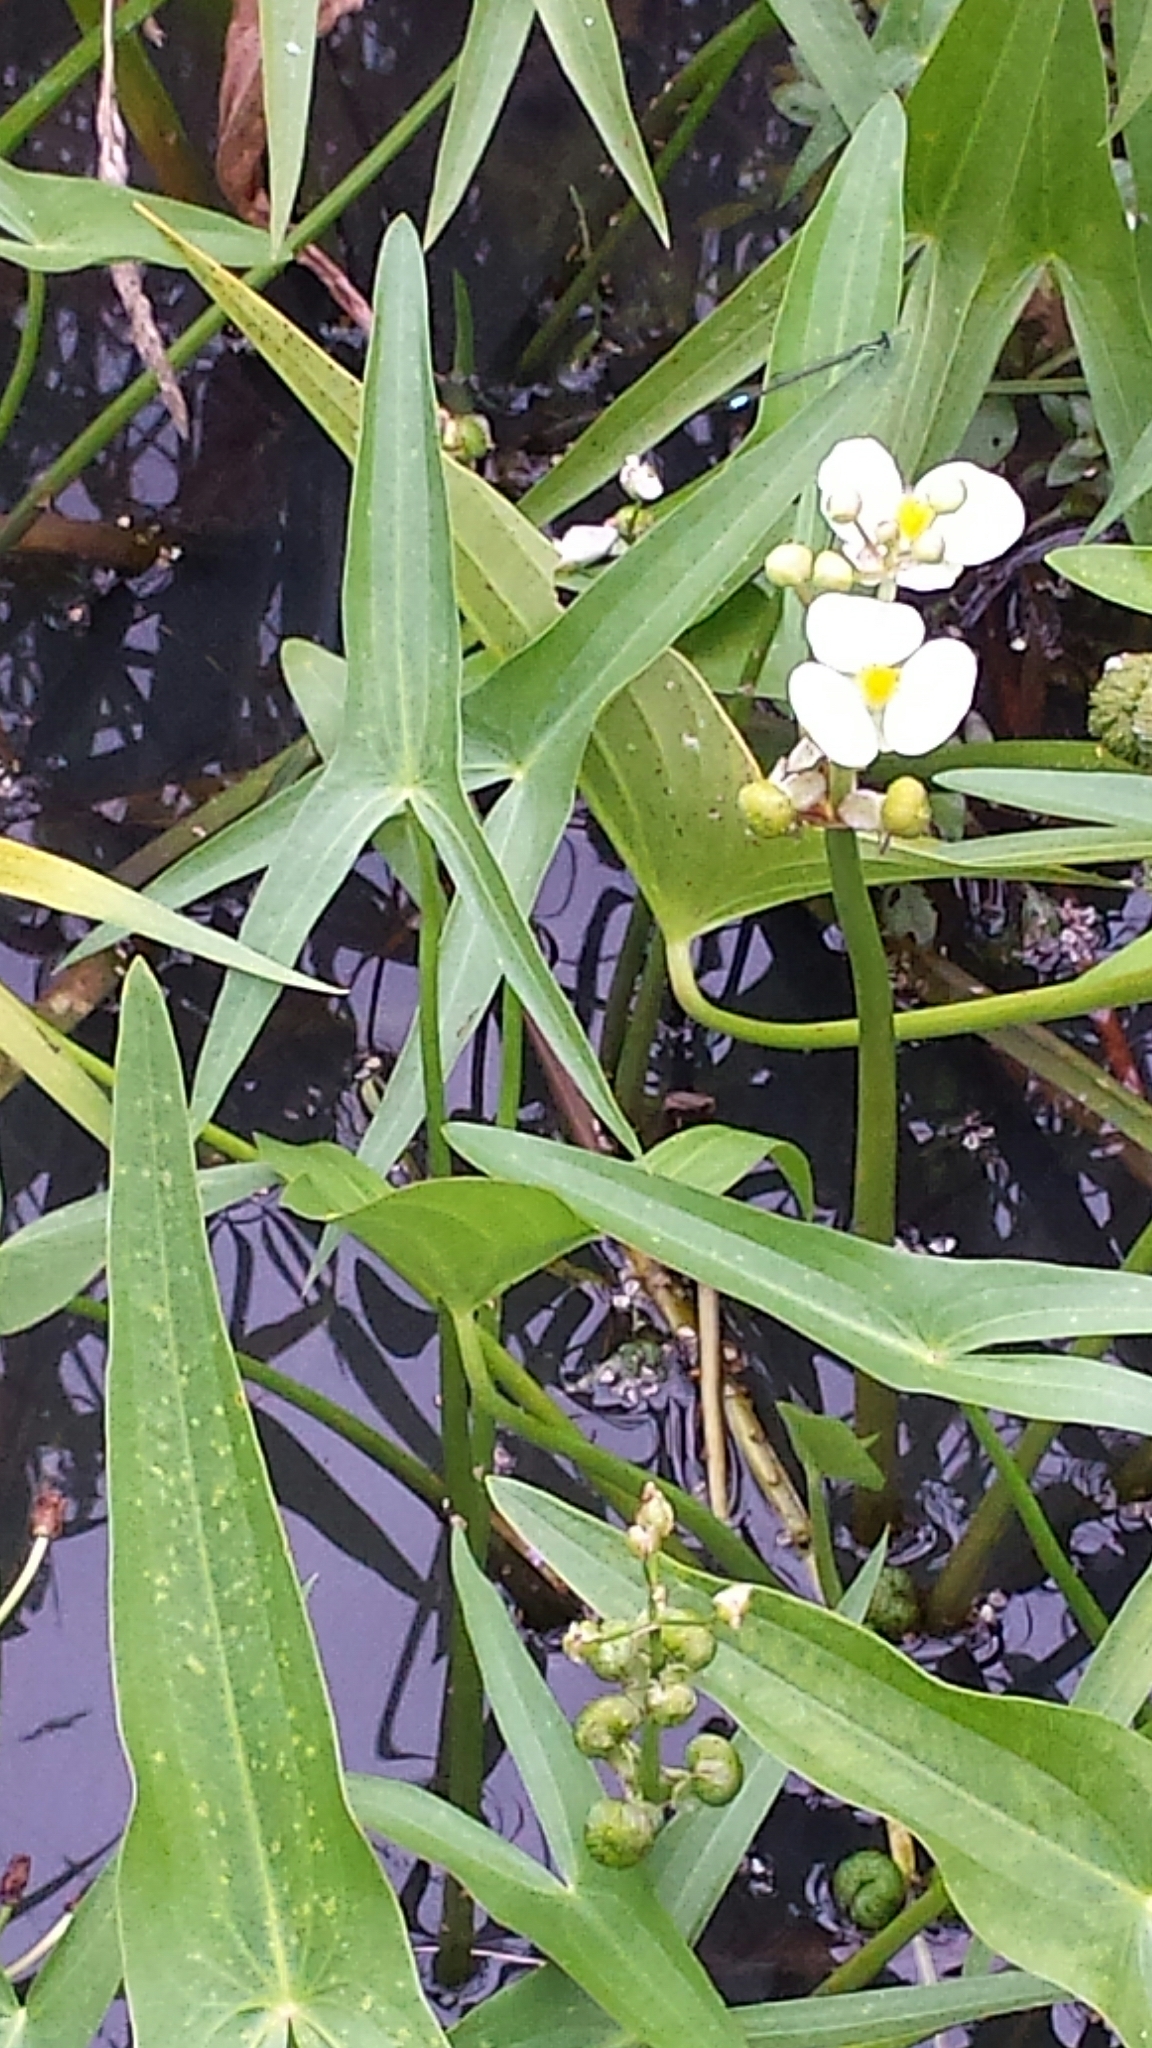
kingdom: Plantae
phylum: Tracheophyta
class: Liliopsida
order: Alismatales
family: Alismataceae
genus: Sagittaria
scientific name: Sagittaria latifolia
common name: Duck-potato
